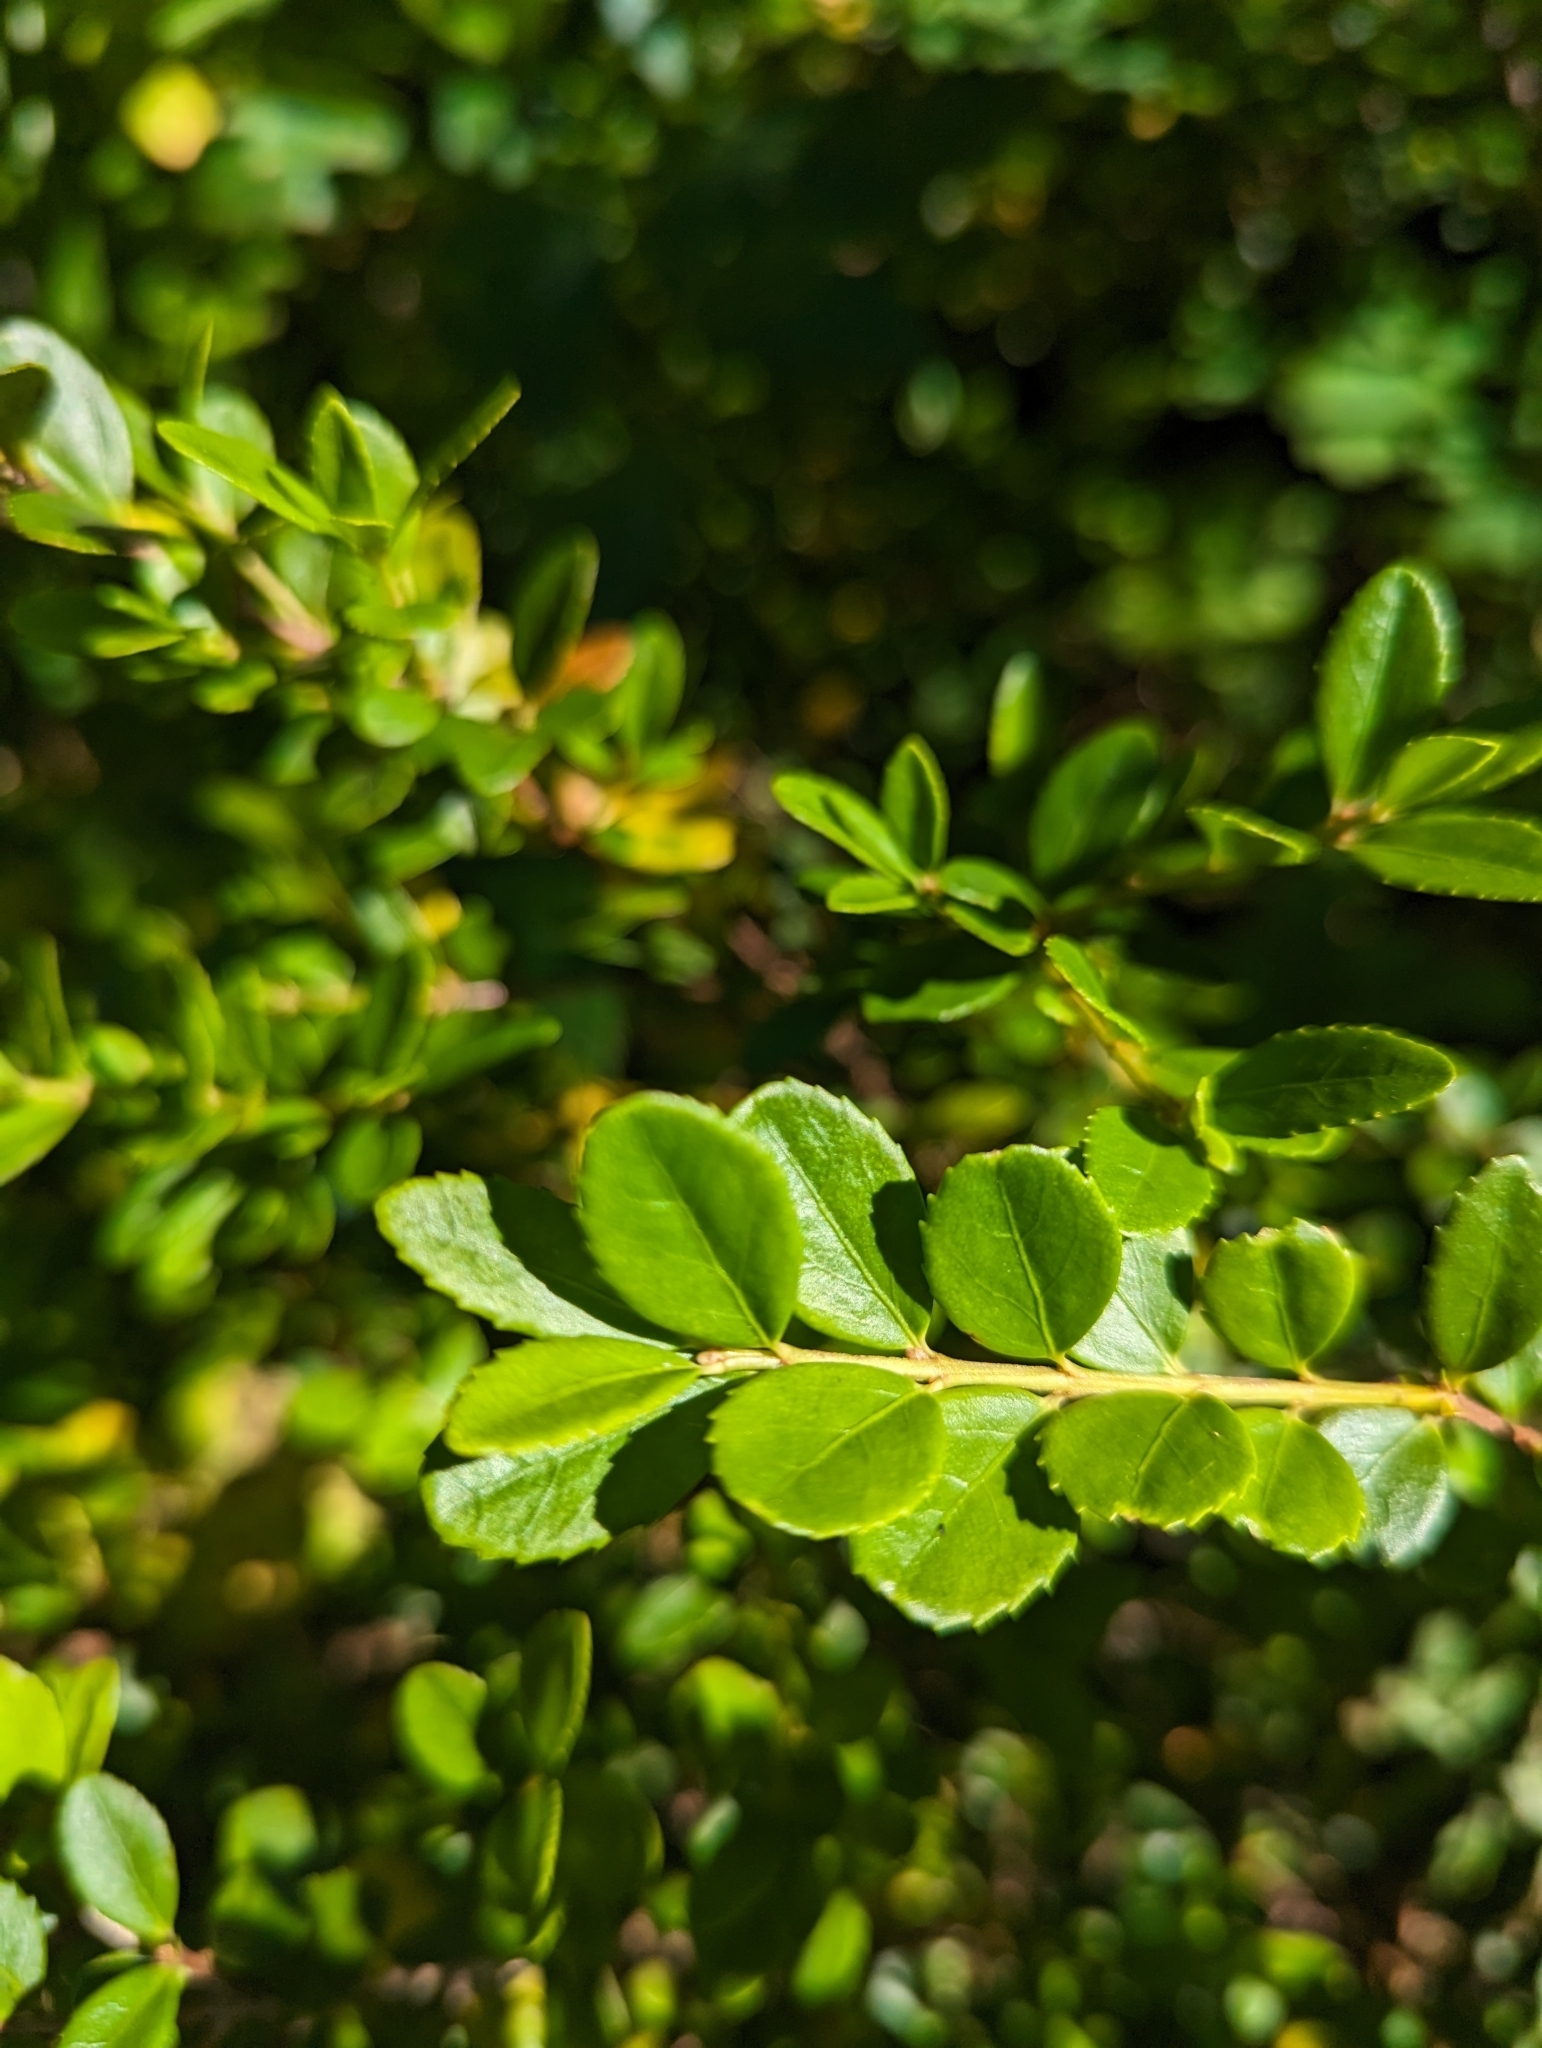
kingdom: Plantae
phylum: Tracheophyta
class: Magnoliopsida
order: Celastrales
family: Celastraceae
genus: Paxistima
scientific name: Paxistima myrsinites
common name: Mountain-lover
